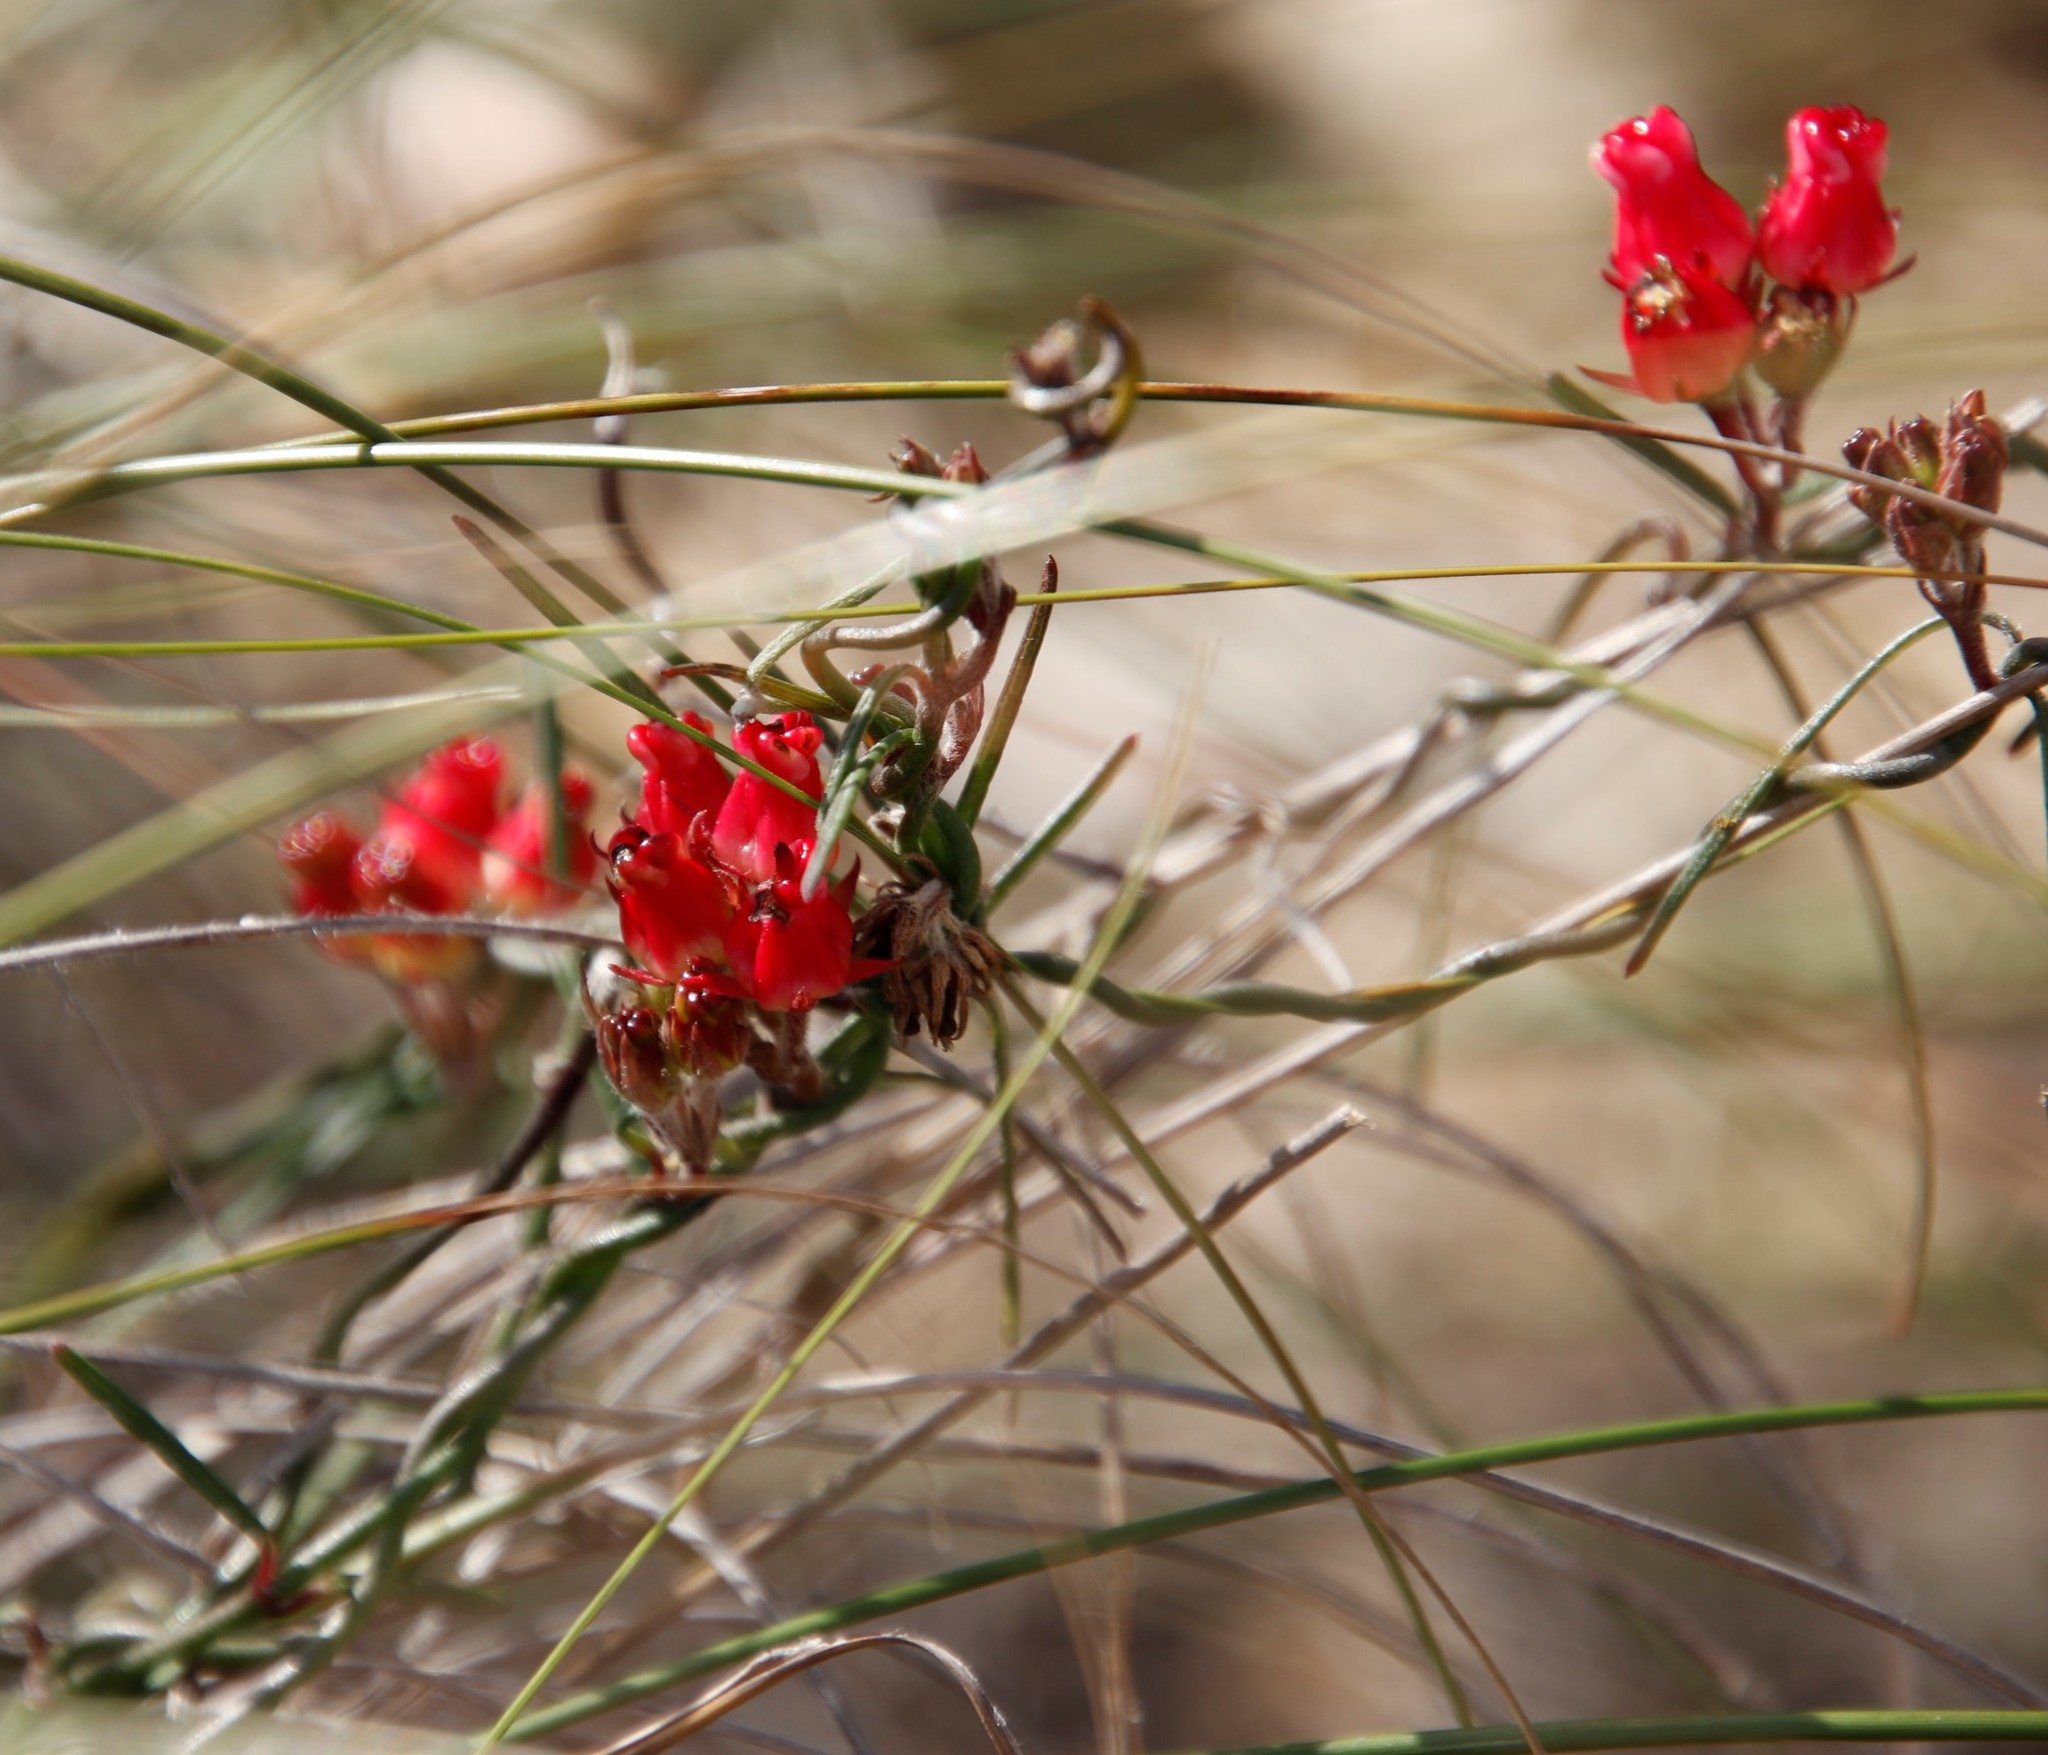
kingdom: Plantae
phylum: Tracheophyta
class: Magnoliopsida
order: Gentianales
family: Apocynaceae
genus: Microloma
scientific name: Microloma tenuifolium
